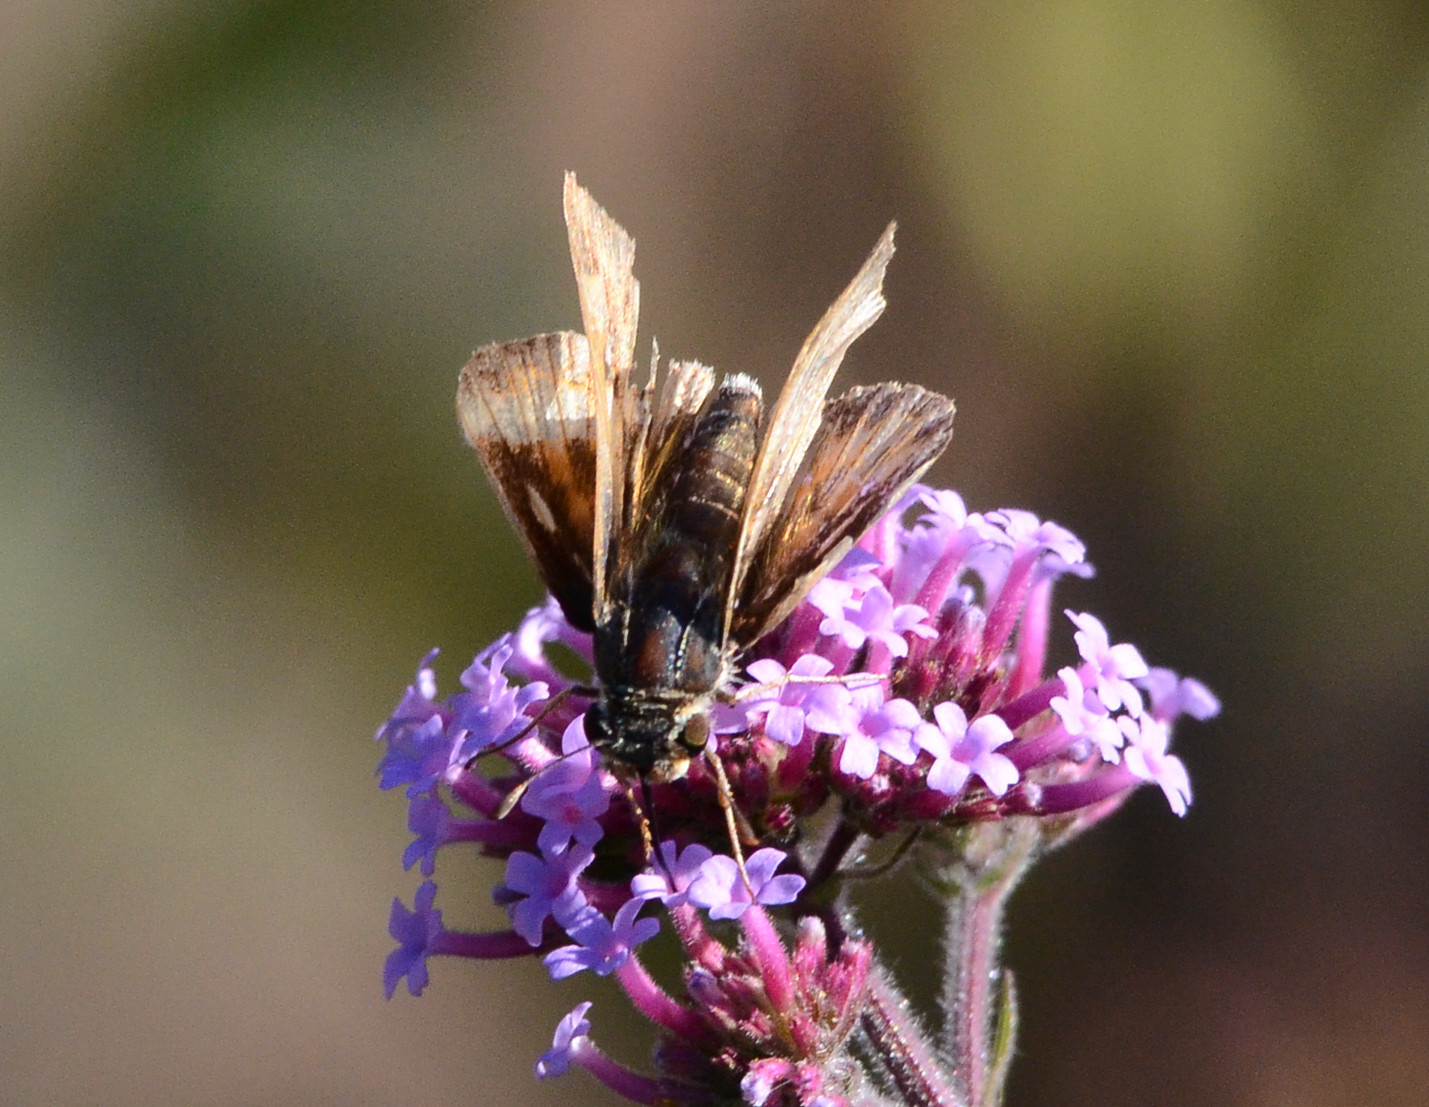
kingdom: Animalia
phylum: Arthropoda
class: Insecta
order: Lepidoptera
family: Hesperiidae
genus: Polites
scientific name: Polites sabuleti
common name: Sandhill skipper
